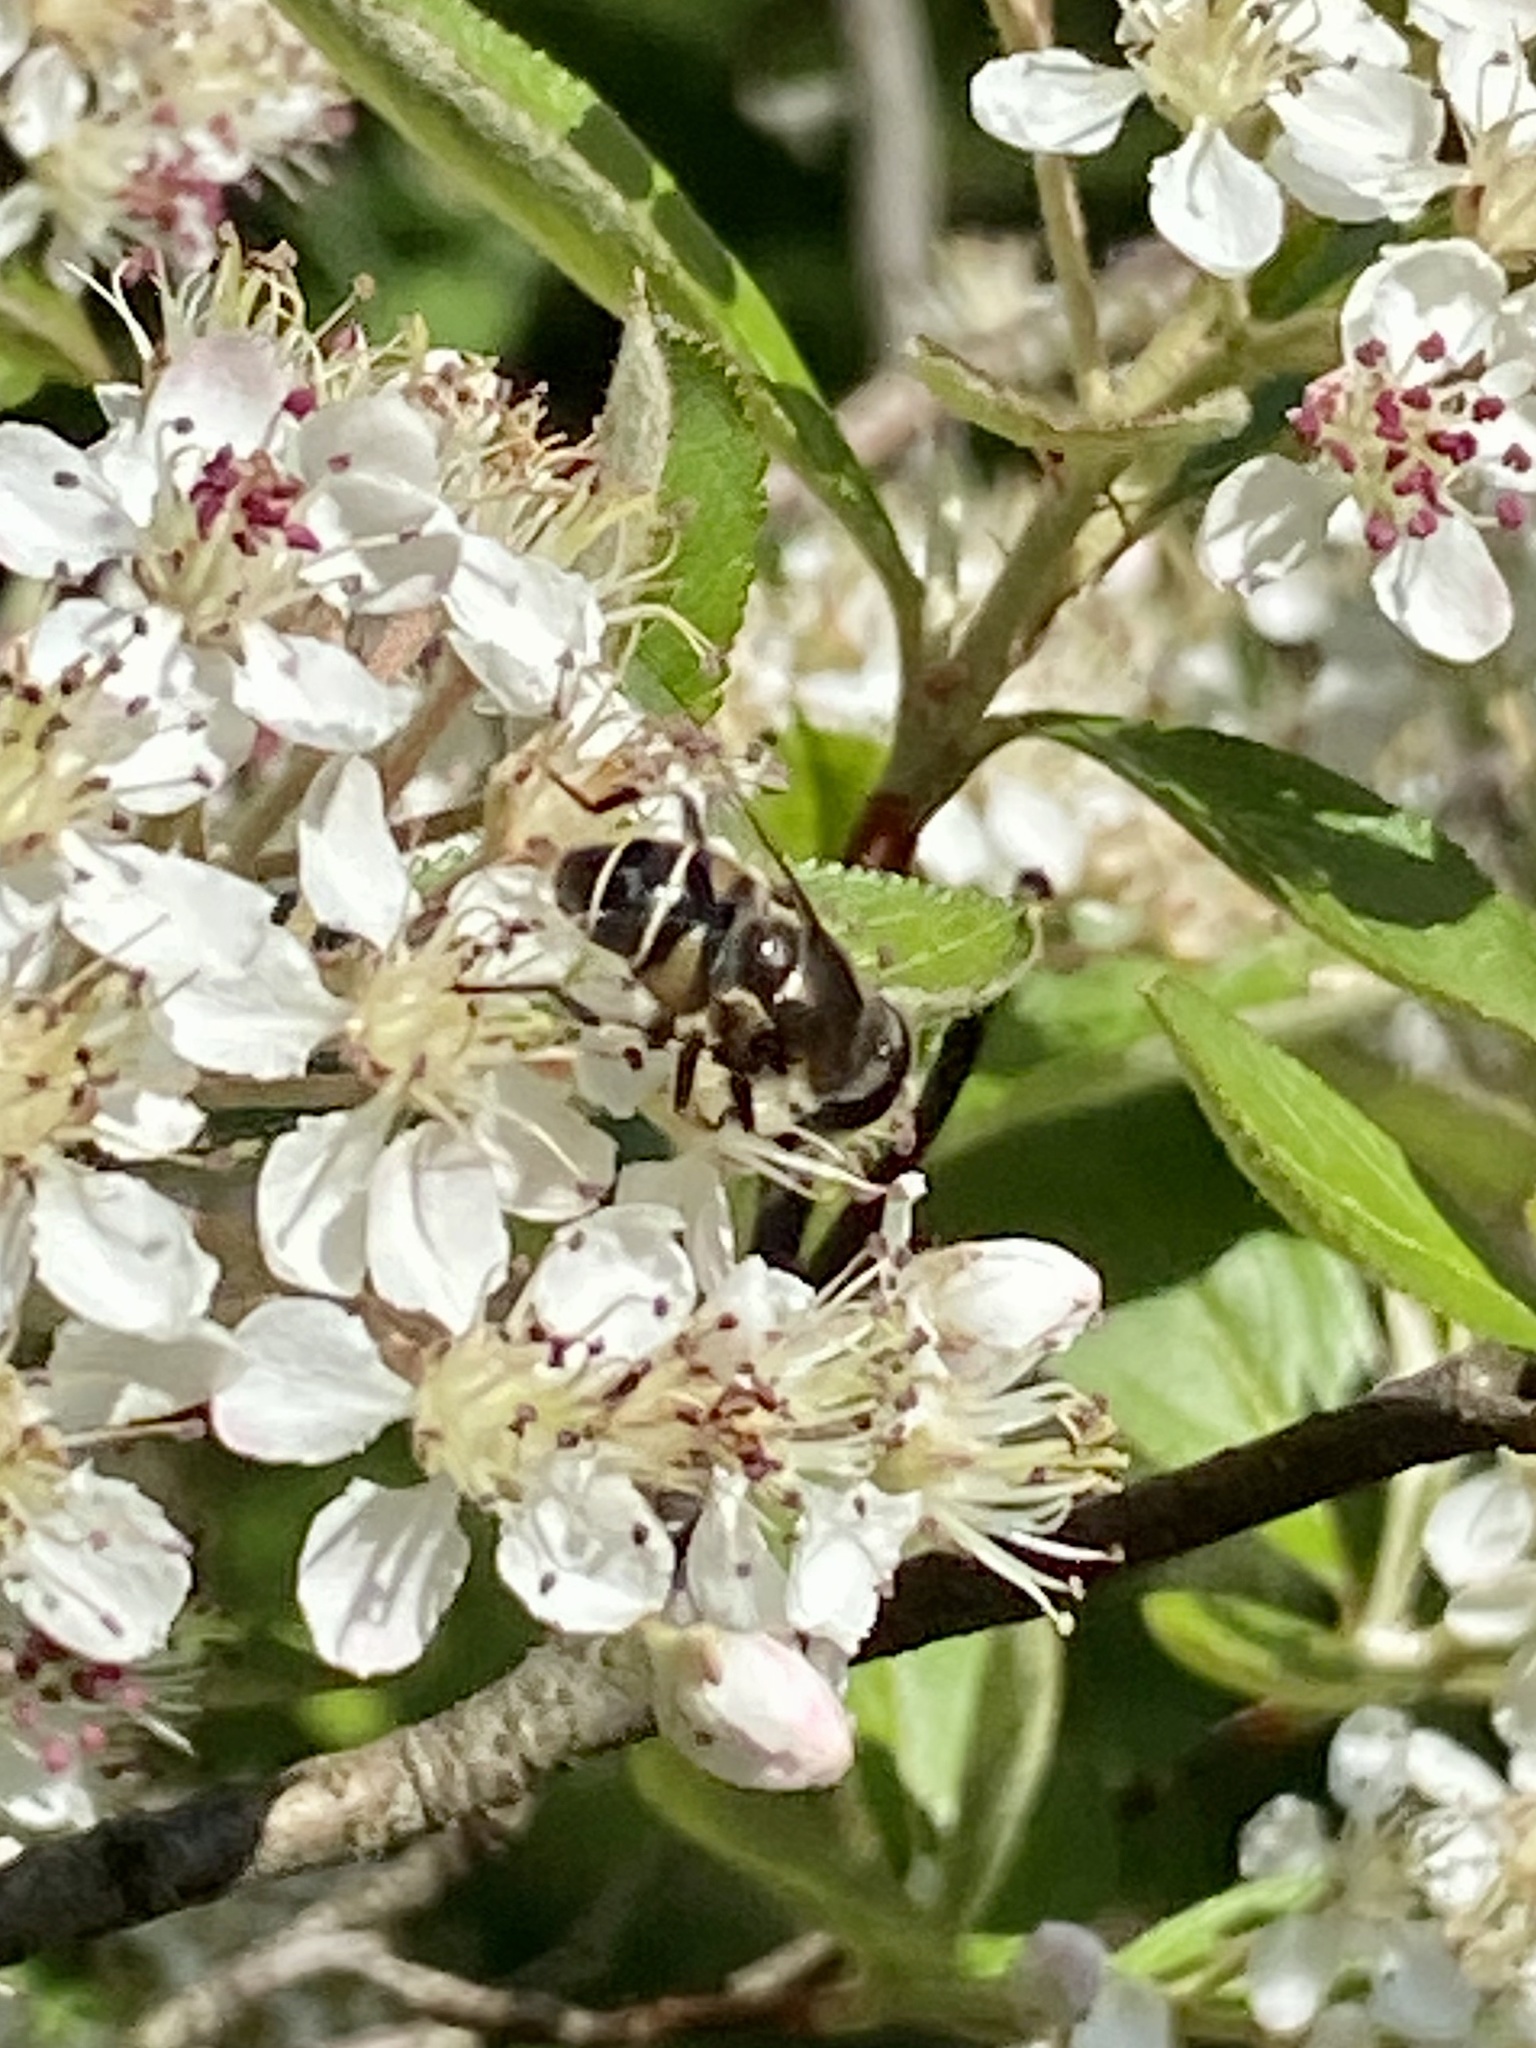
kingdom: Animalia
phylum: Arthropoda
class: Insecta
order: Diptera
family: Syrphidae
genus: Eristalis
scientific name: Eristalis dimidiata
